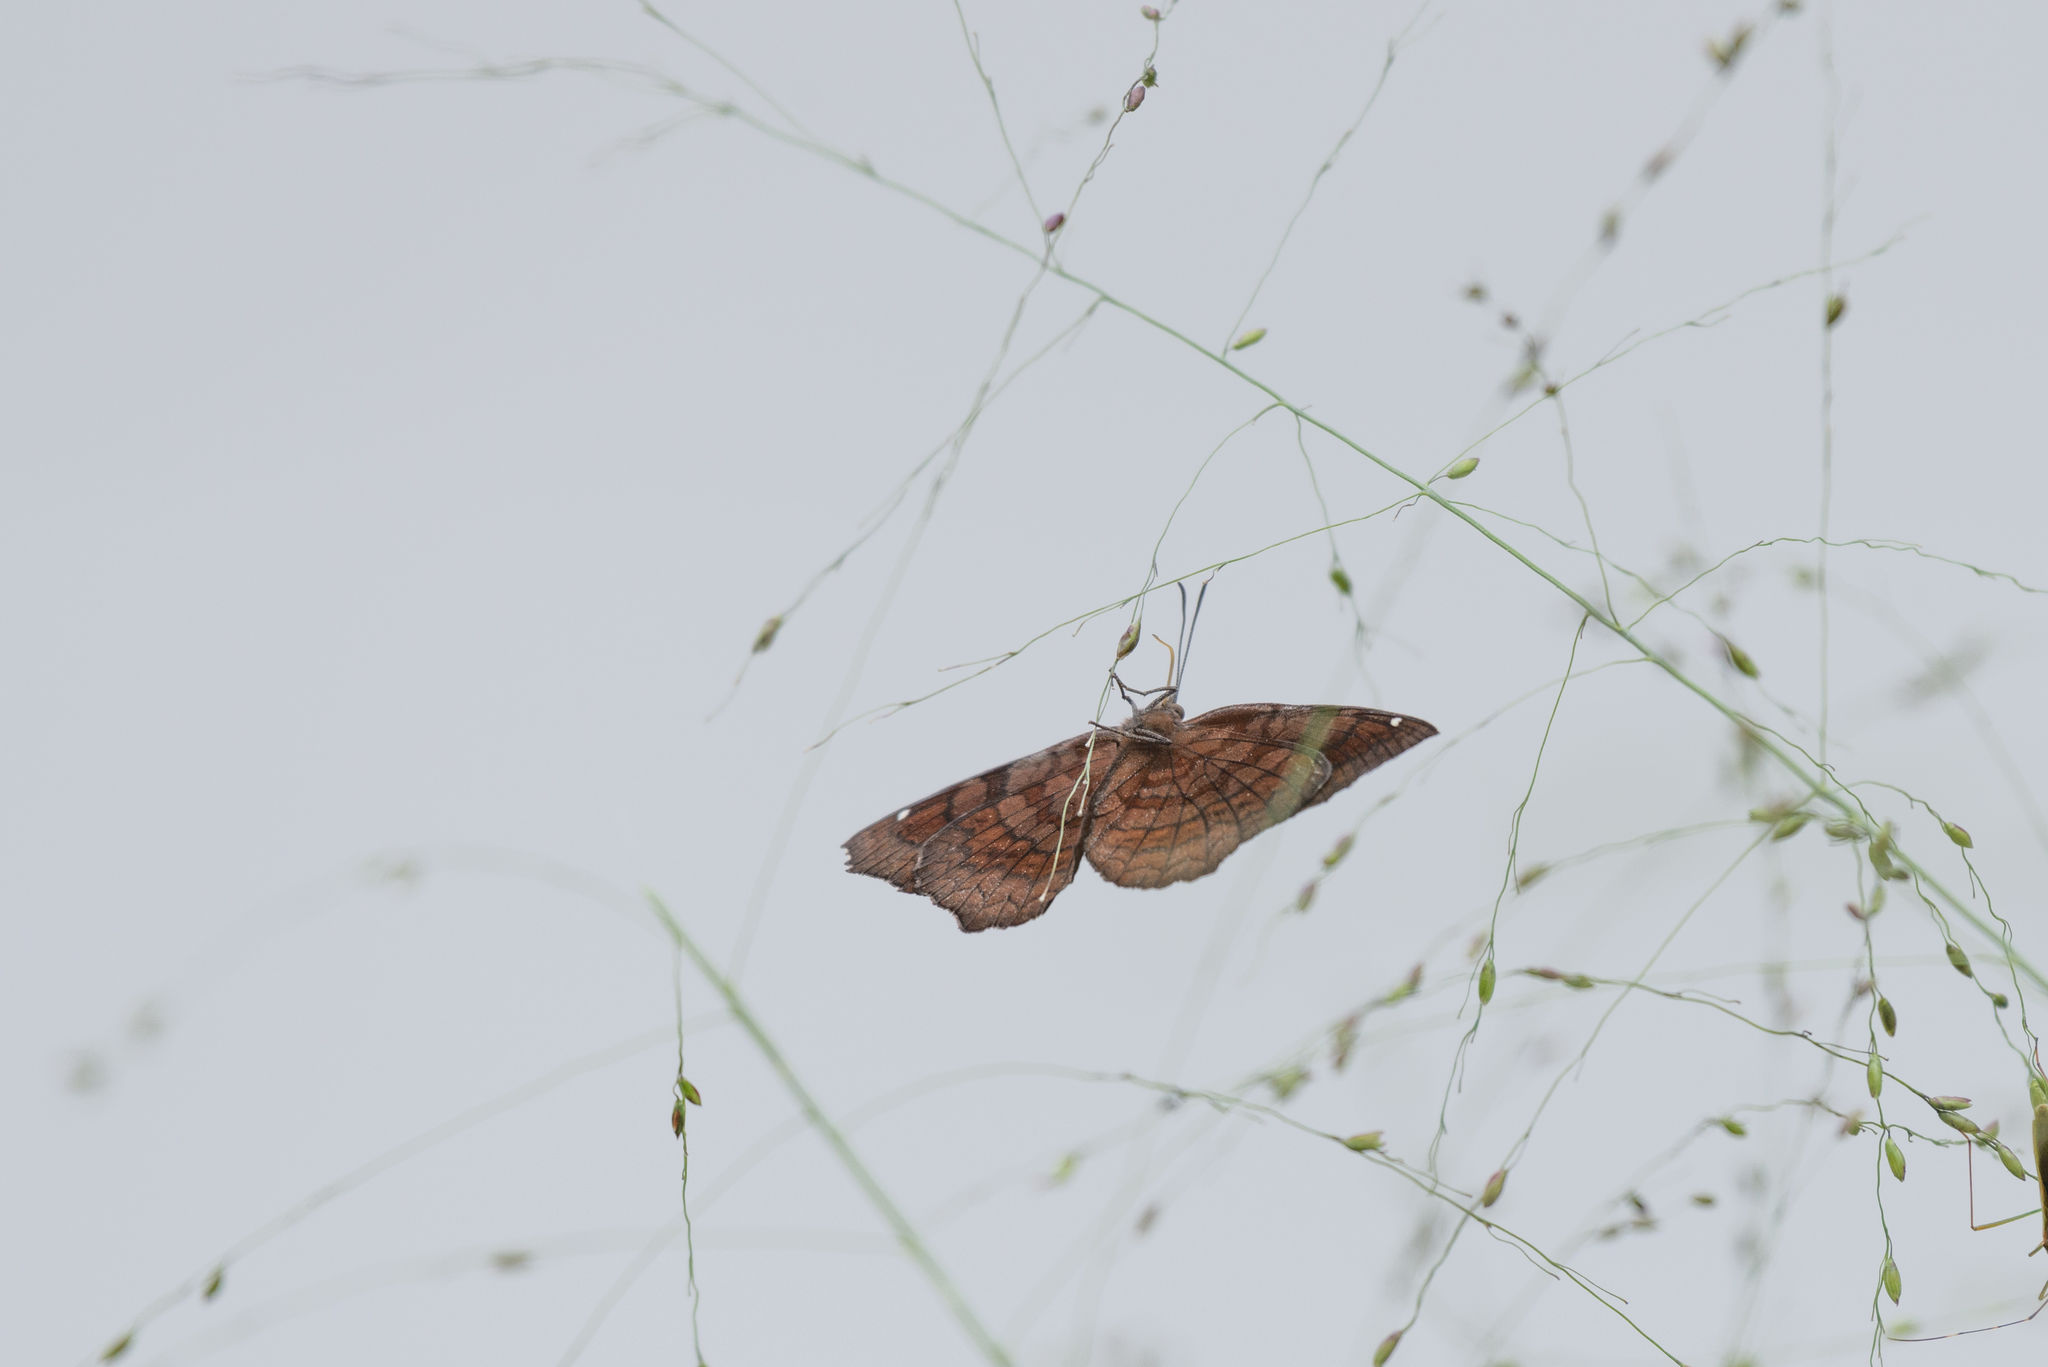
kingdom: Animalia
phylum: Arthropoda
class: Insecta
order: Lepidoptera
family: Nymphalidae
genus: Ariadne
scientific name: Ariadne ariadne
